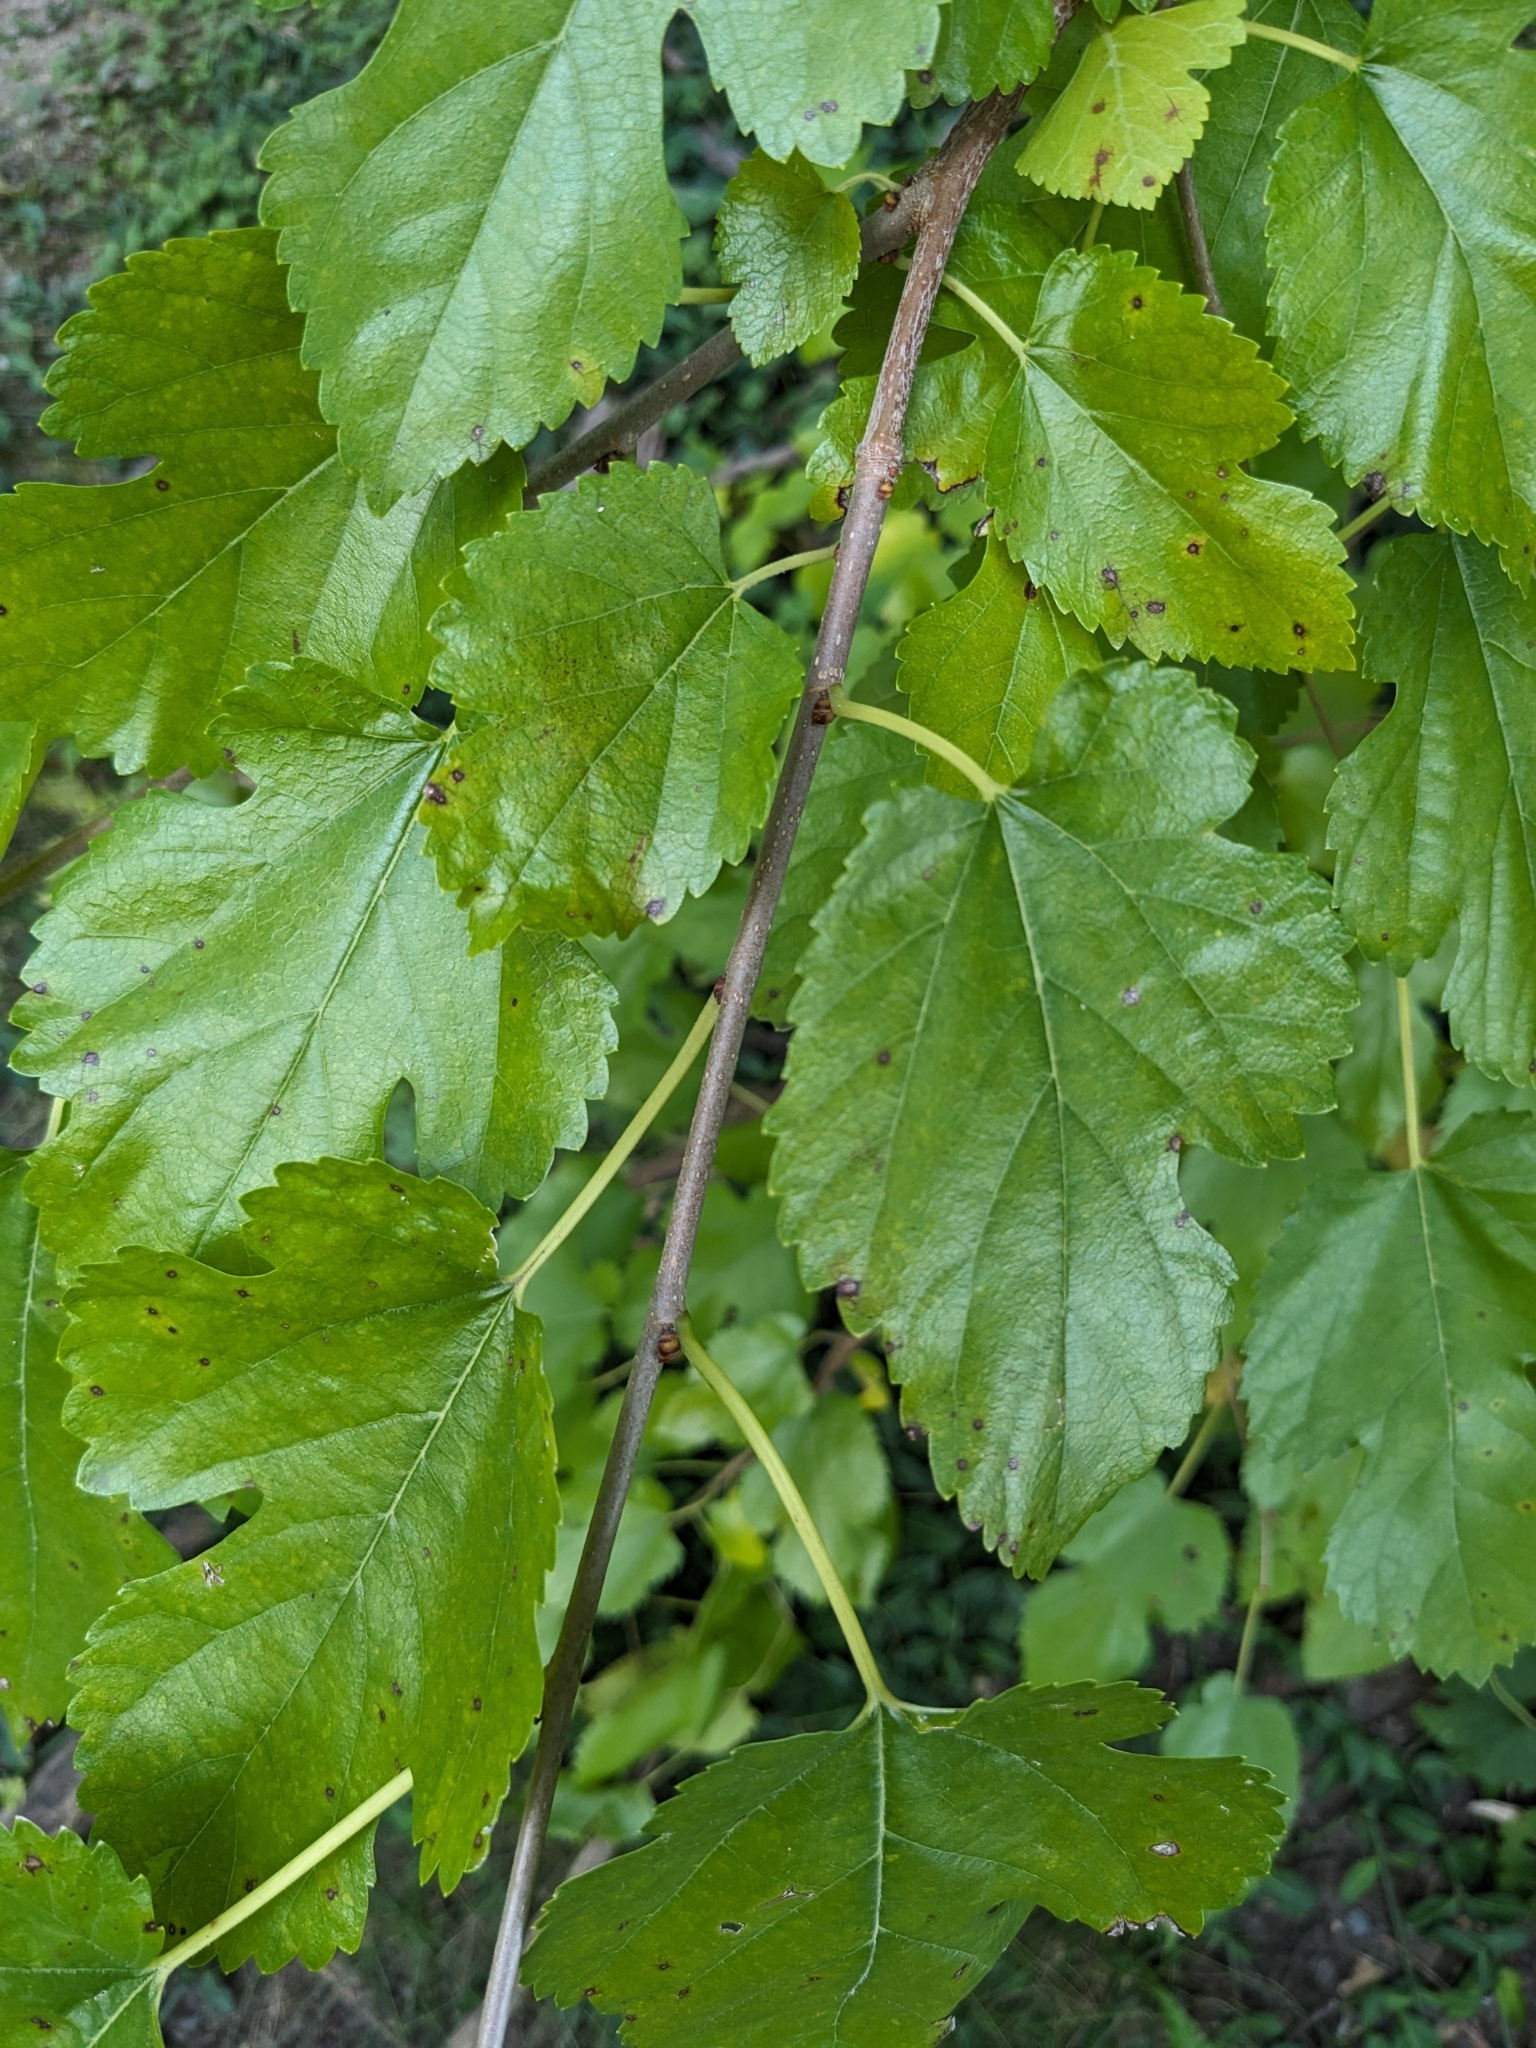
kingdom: Plantae
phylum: Tracheophyta
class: Magnoliopsida
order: Rosales
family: Moraceae
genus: Morus
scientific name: Morus alba
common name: White mulberry
